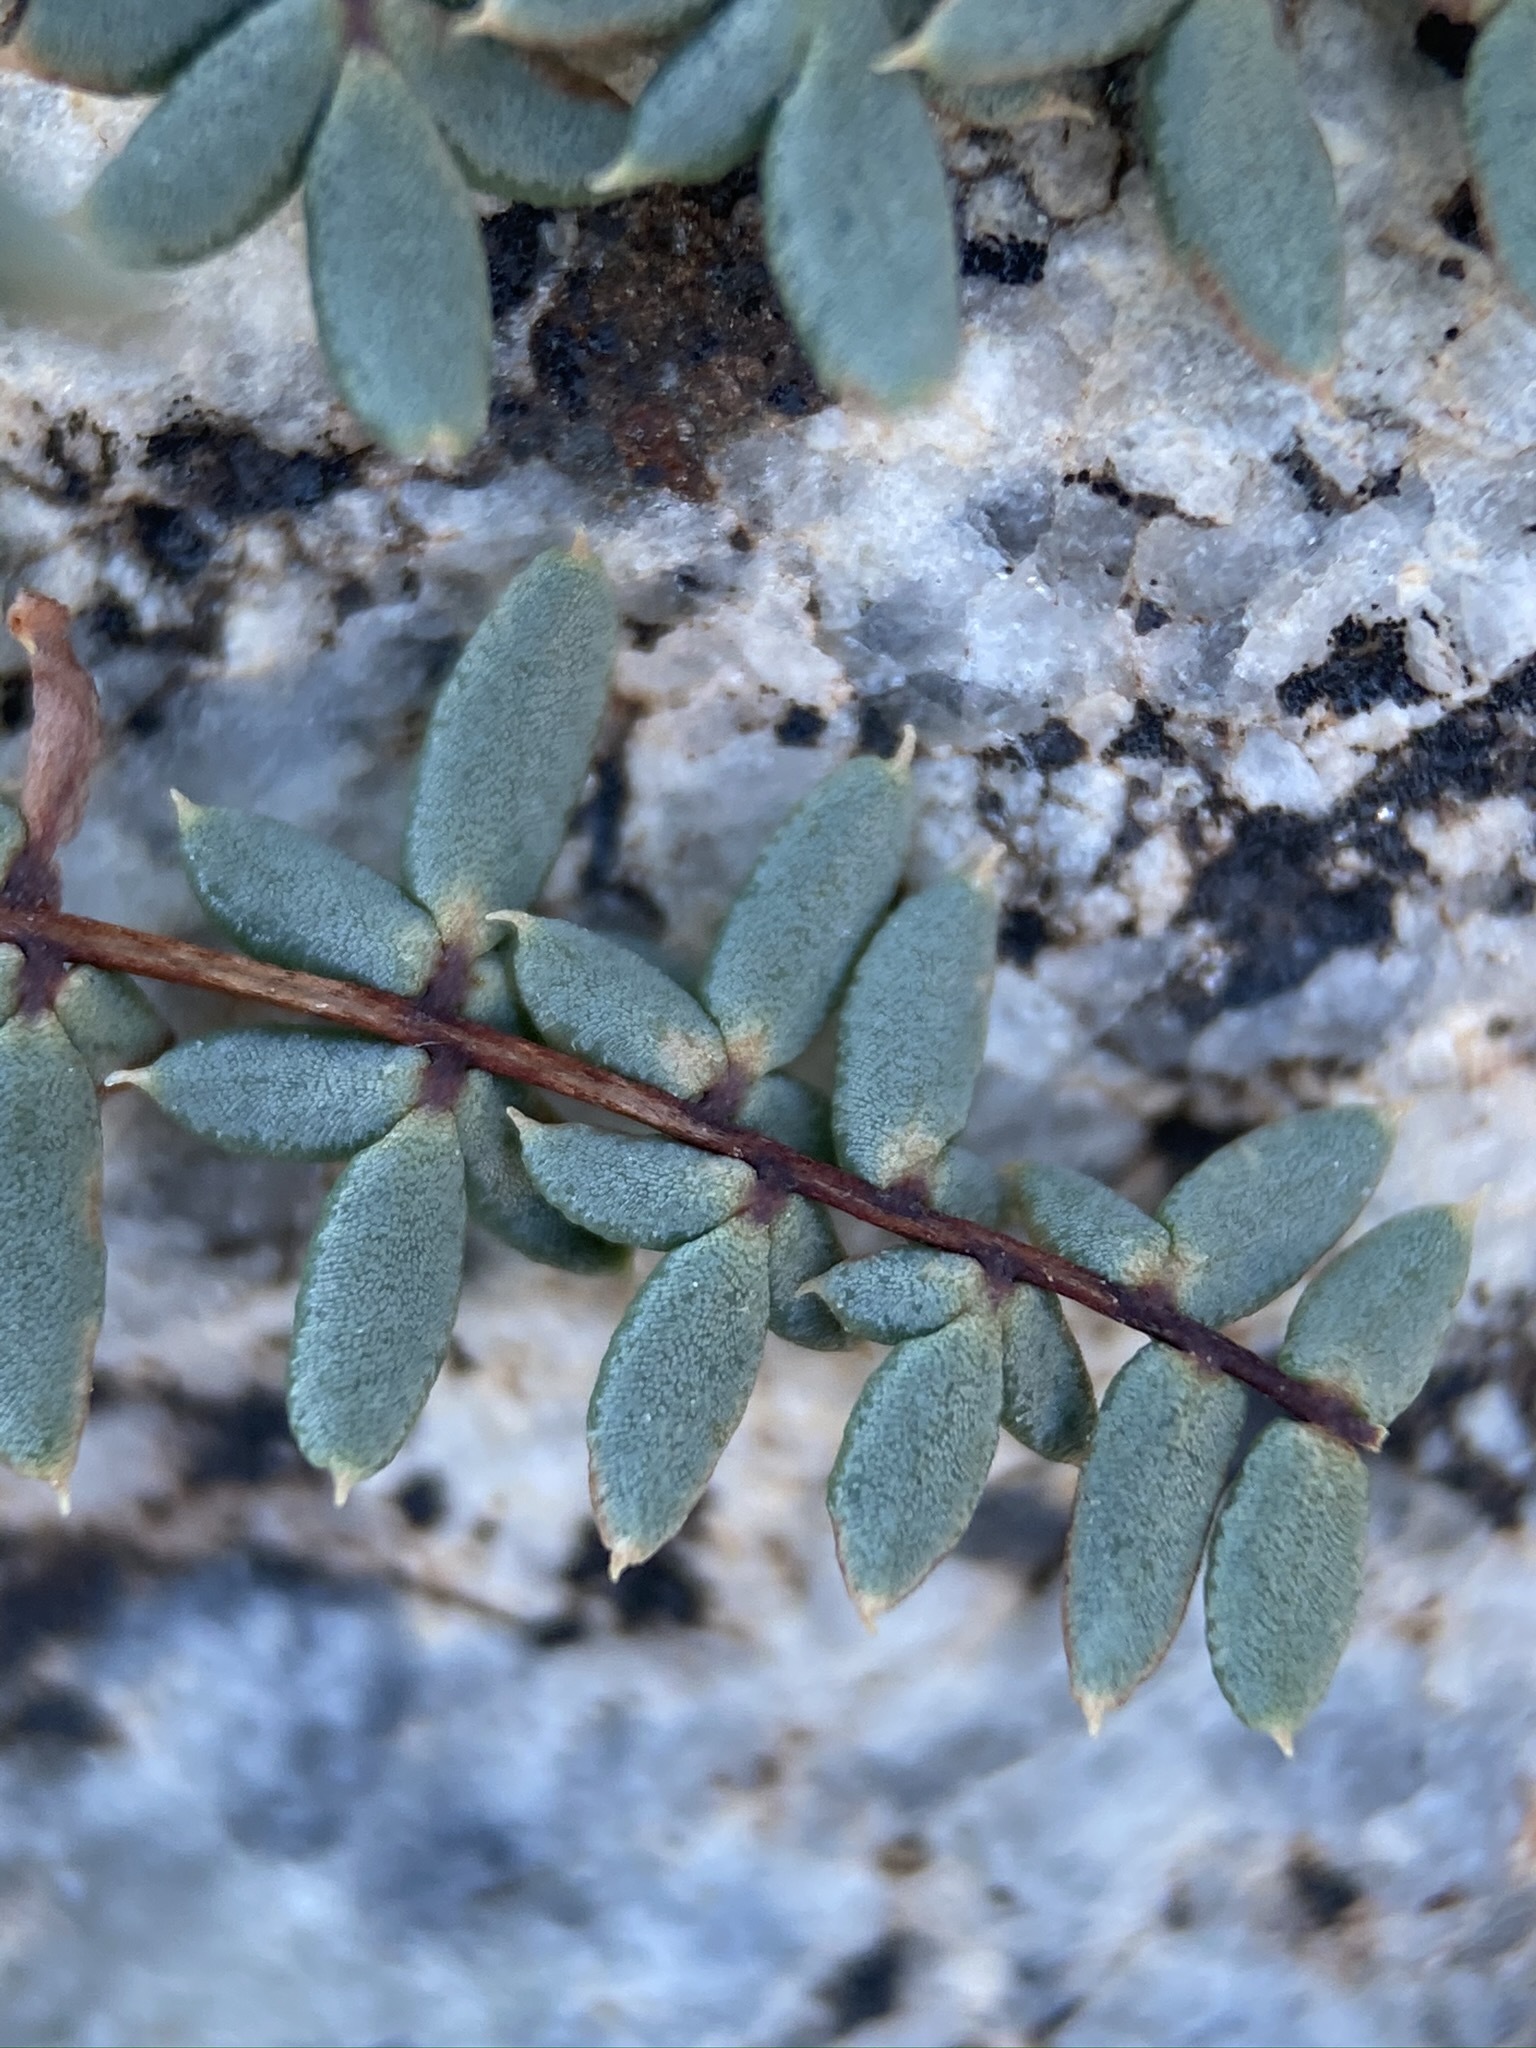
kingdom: Plantae
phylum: Tracheophyta
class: Polypodiopsida
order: Polypodiales
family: Pteridaceae
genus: Pellaea
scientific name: Pellaea mucronata
